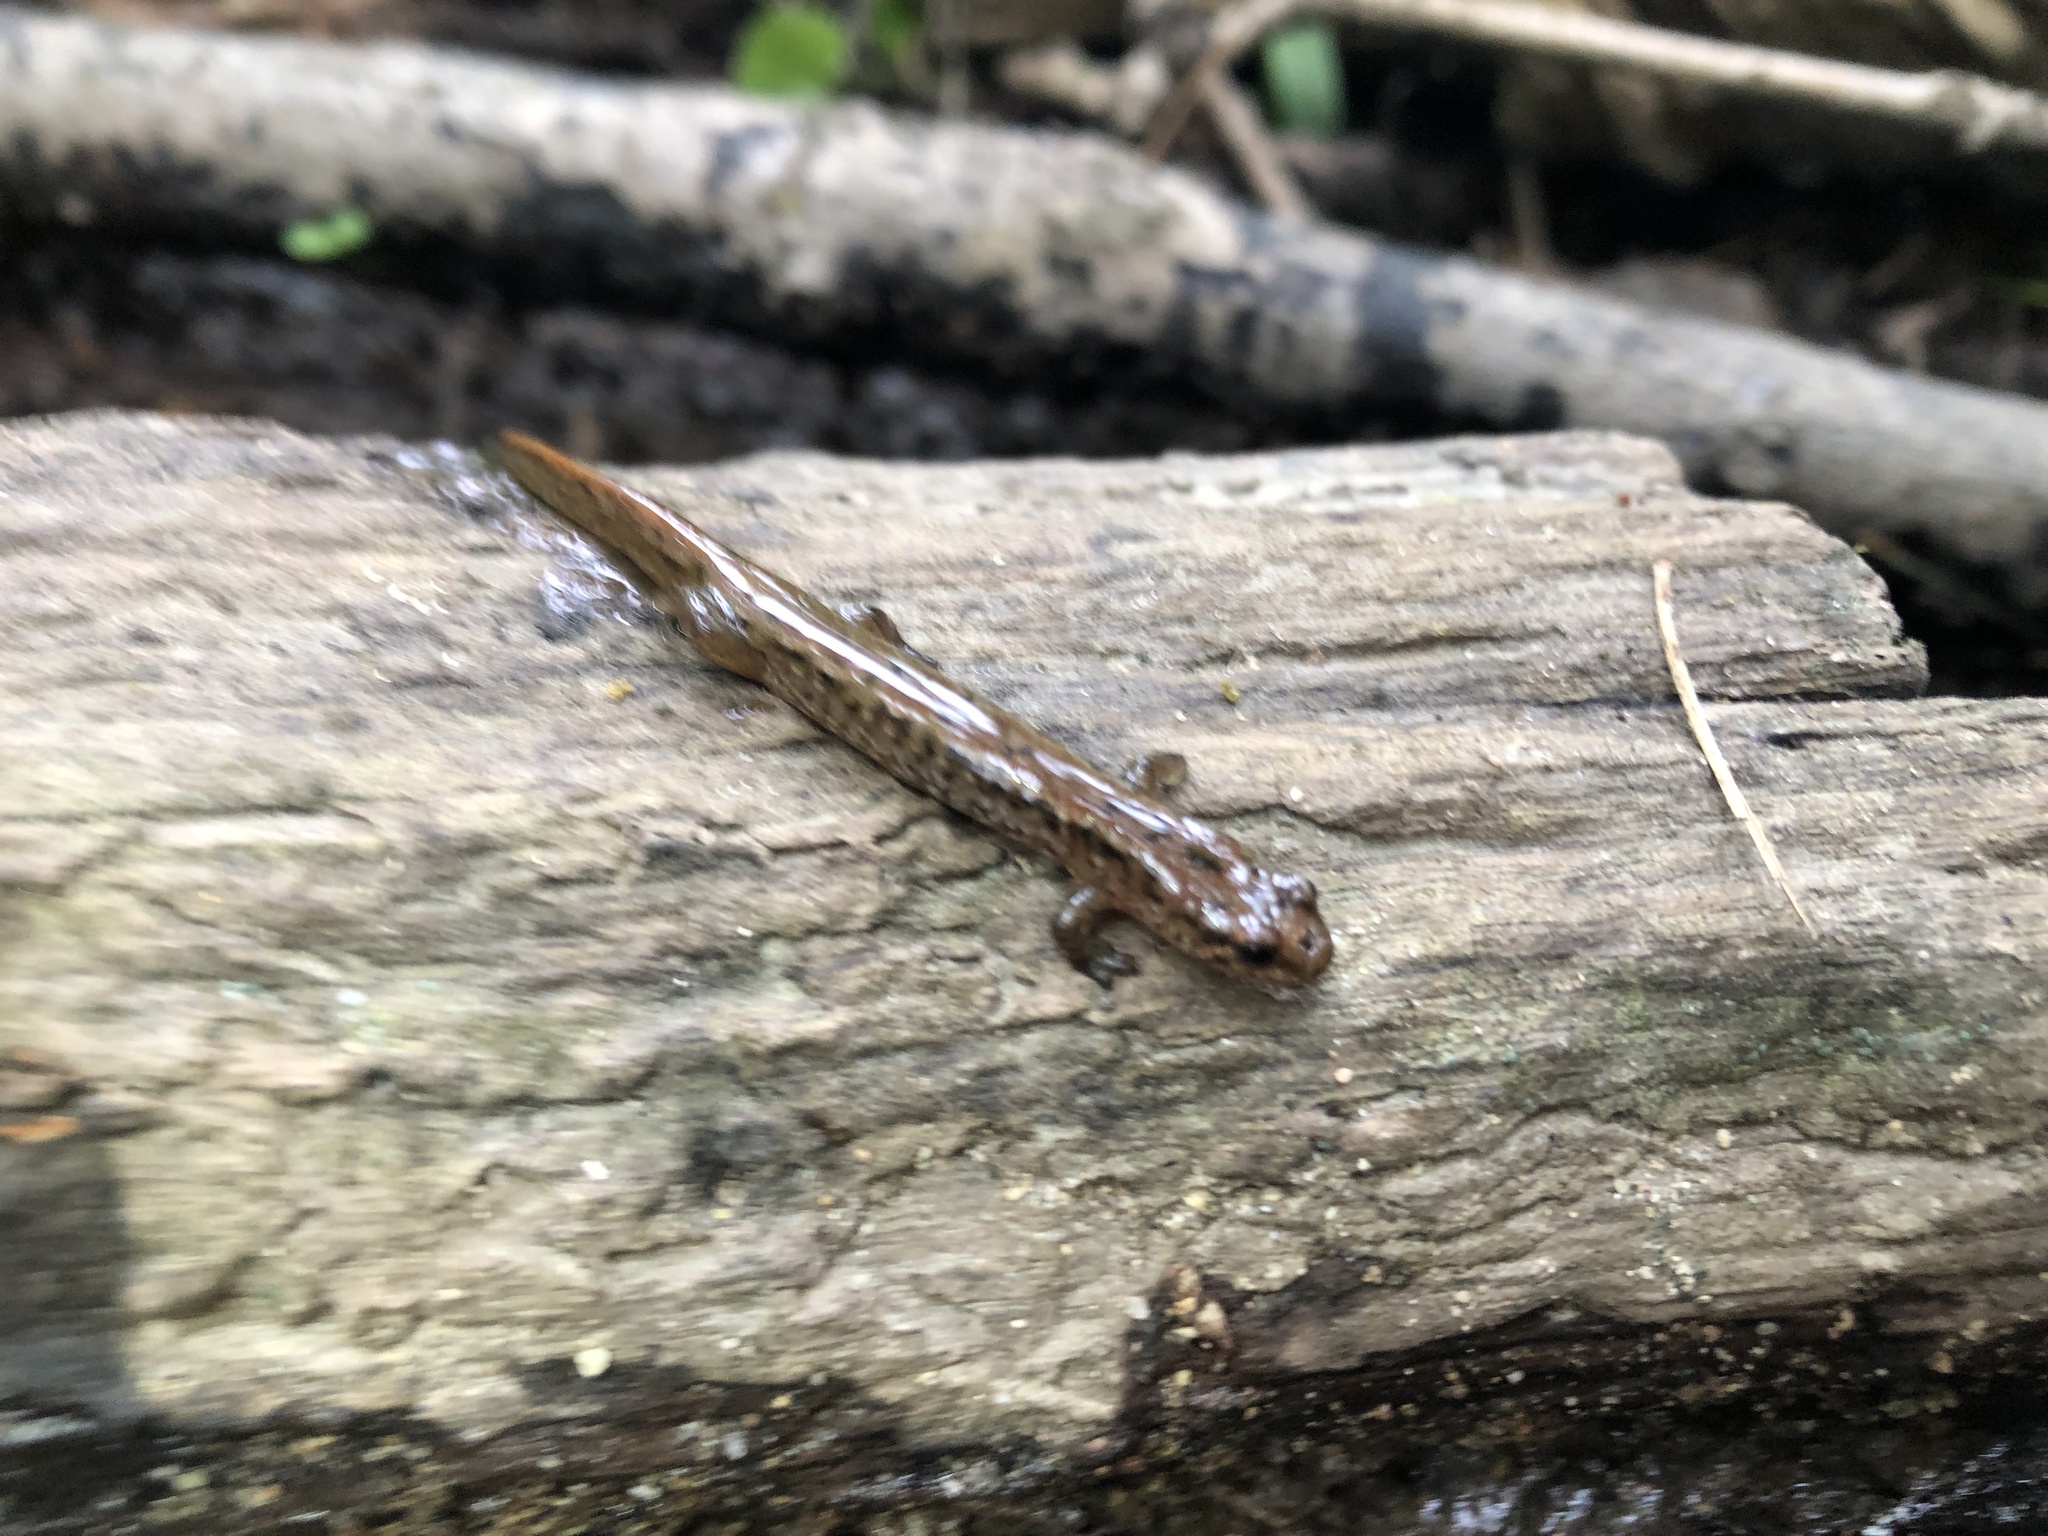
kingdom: Animalia
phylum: Chordata
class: Amphibia
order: Caudata
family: Plethodontidae
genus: Desmognathus
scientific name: Desmognathus fuscus
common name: Northern dusky salamander
